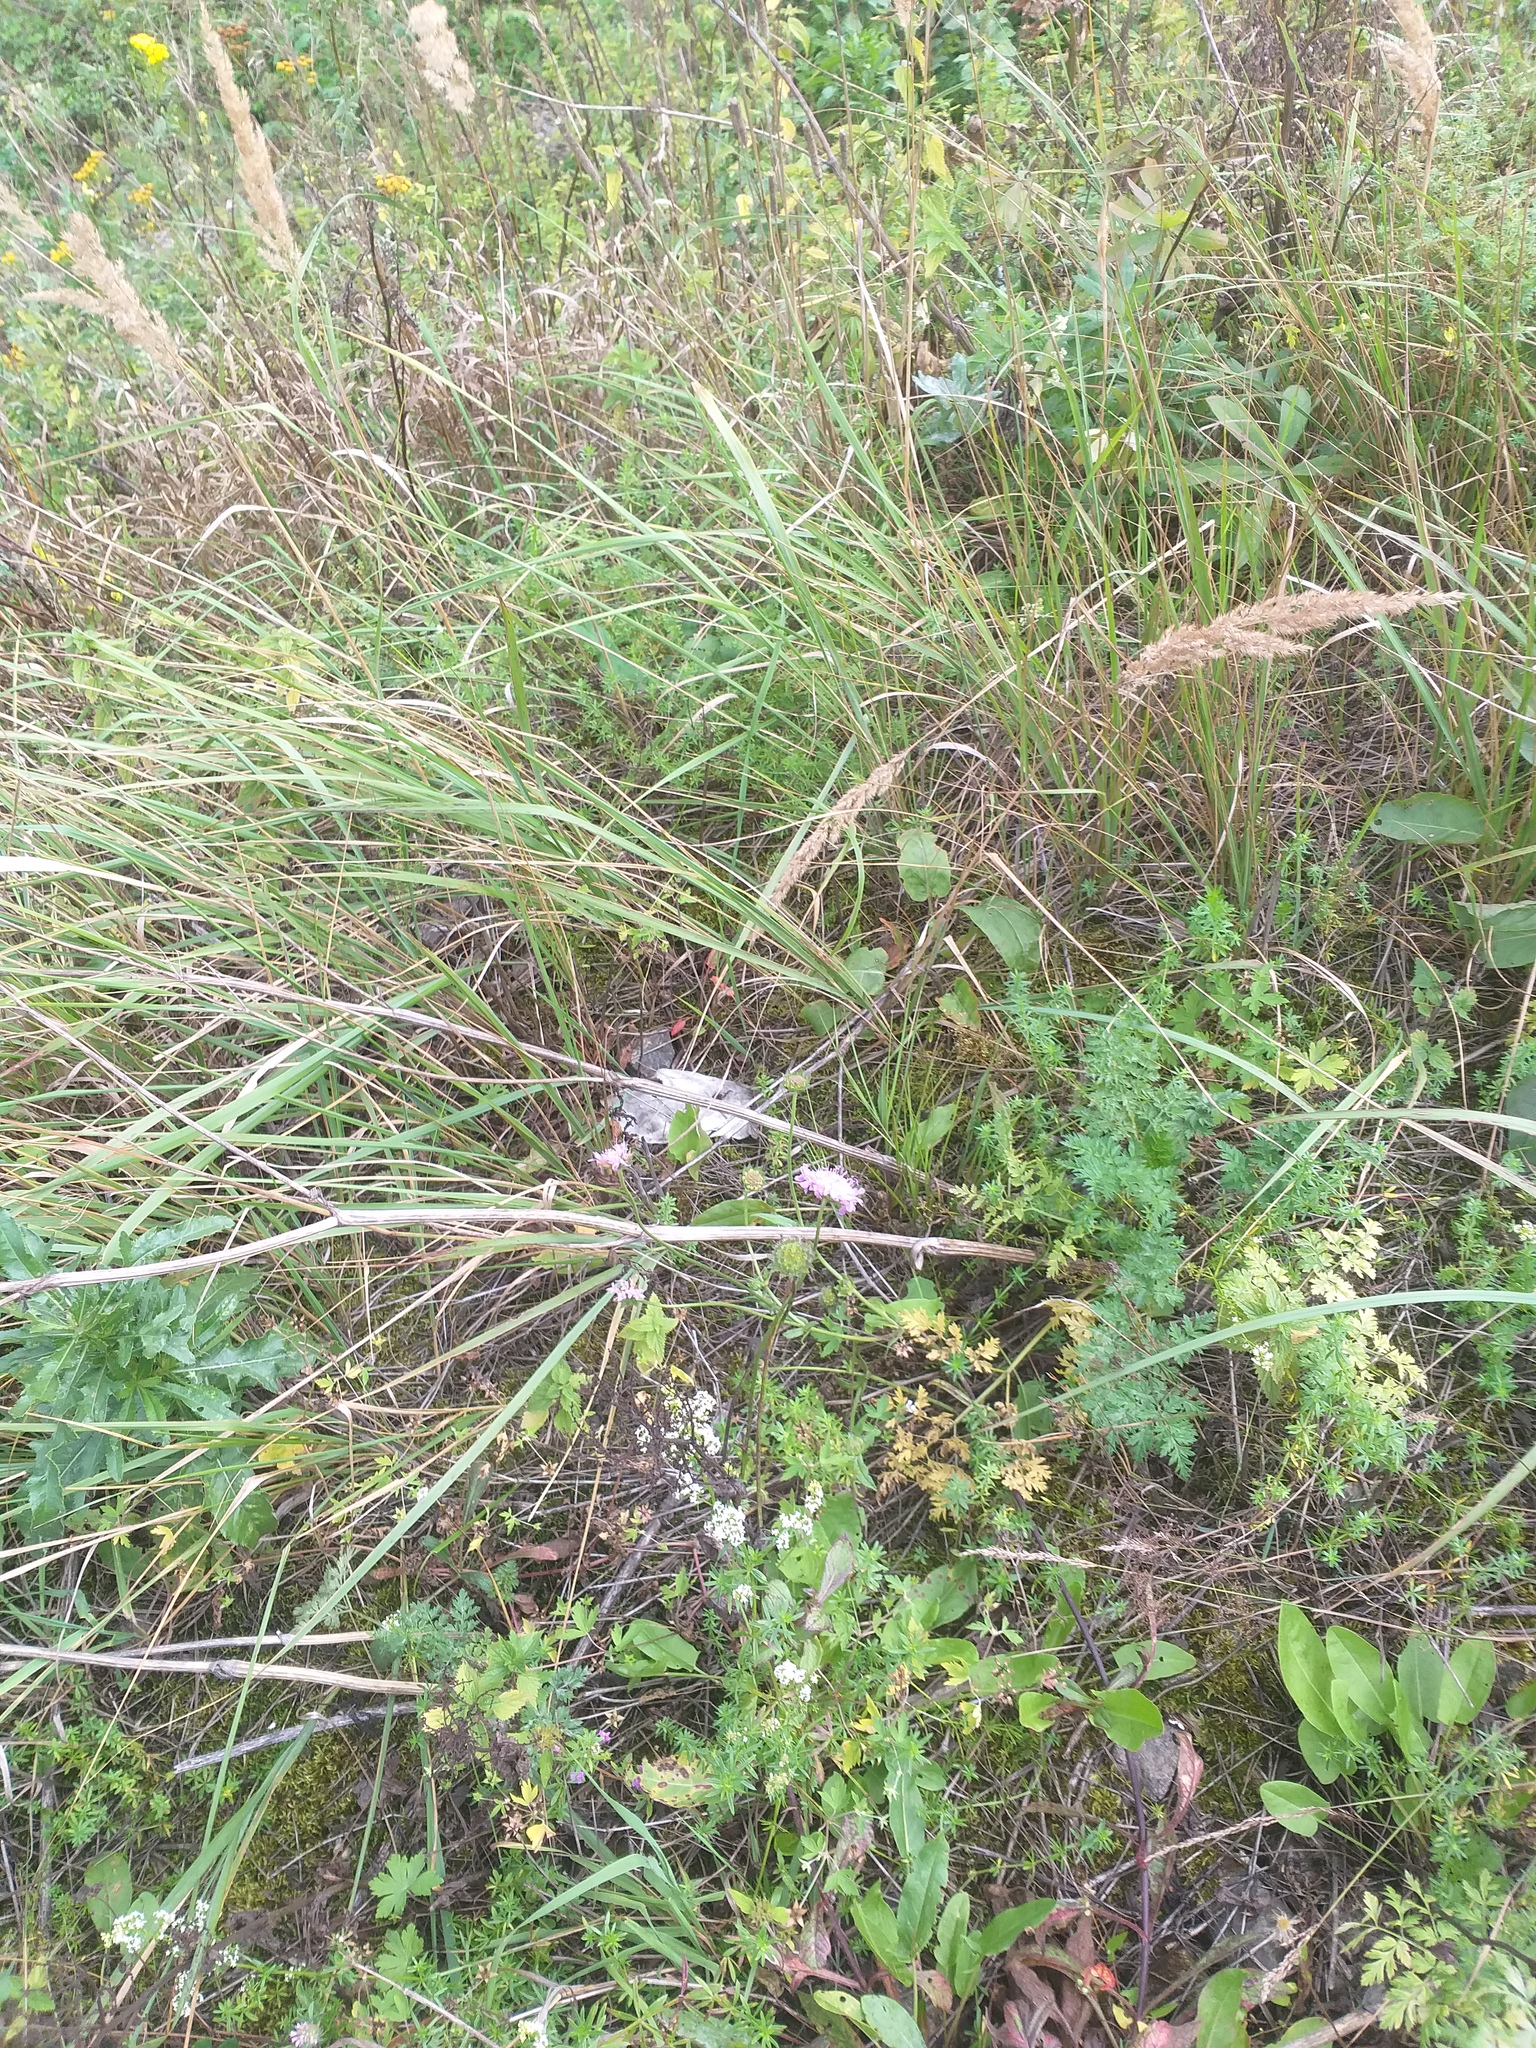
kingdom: Plantae
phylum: Tracheophyta
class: Magnoliopsida
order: Apiales
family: Apiaceae
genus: Anthriscus
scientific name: Anthriscus sylvestris
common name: Cow parsley
